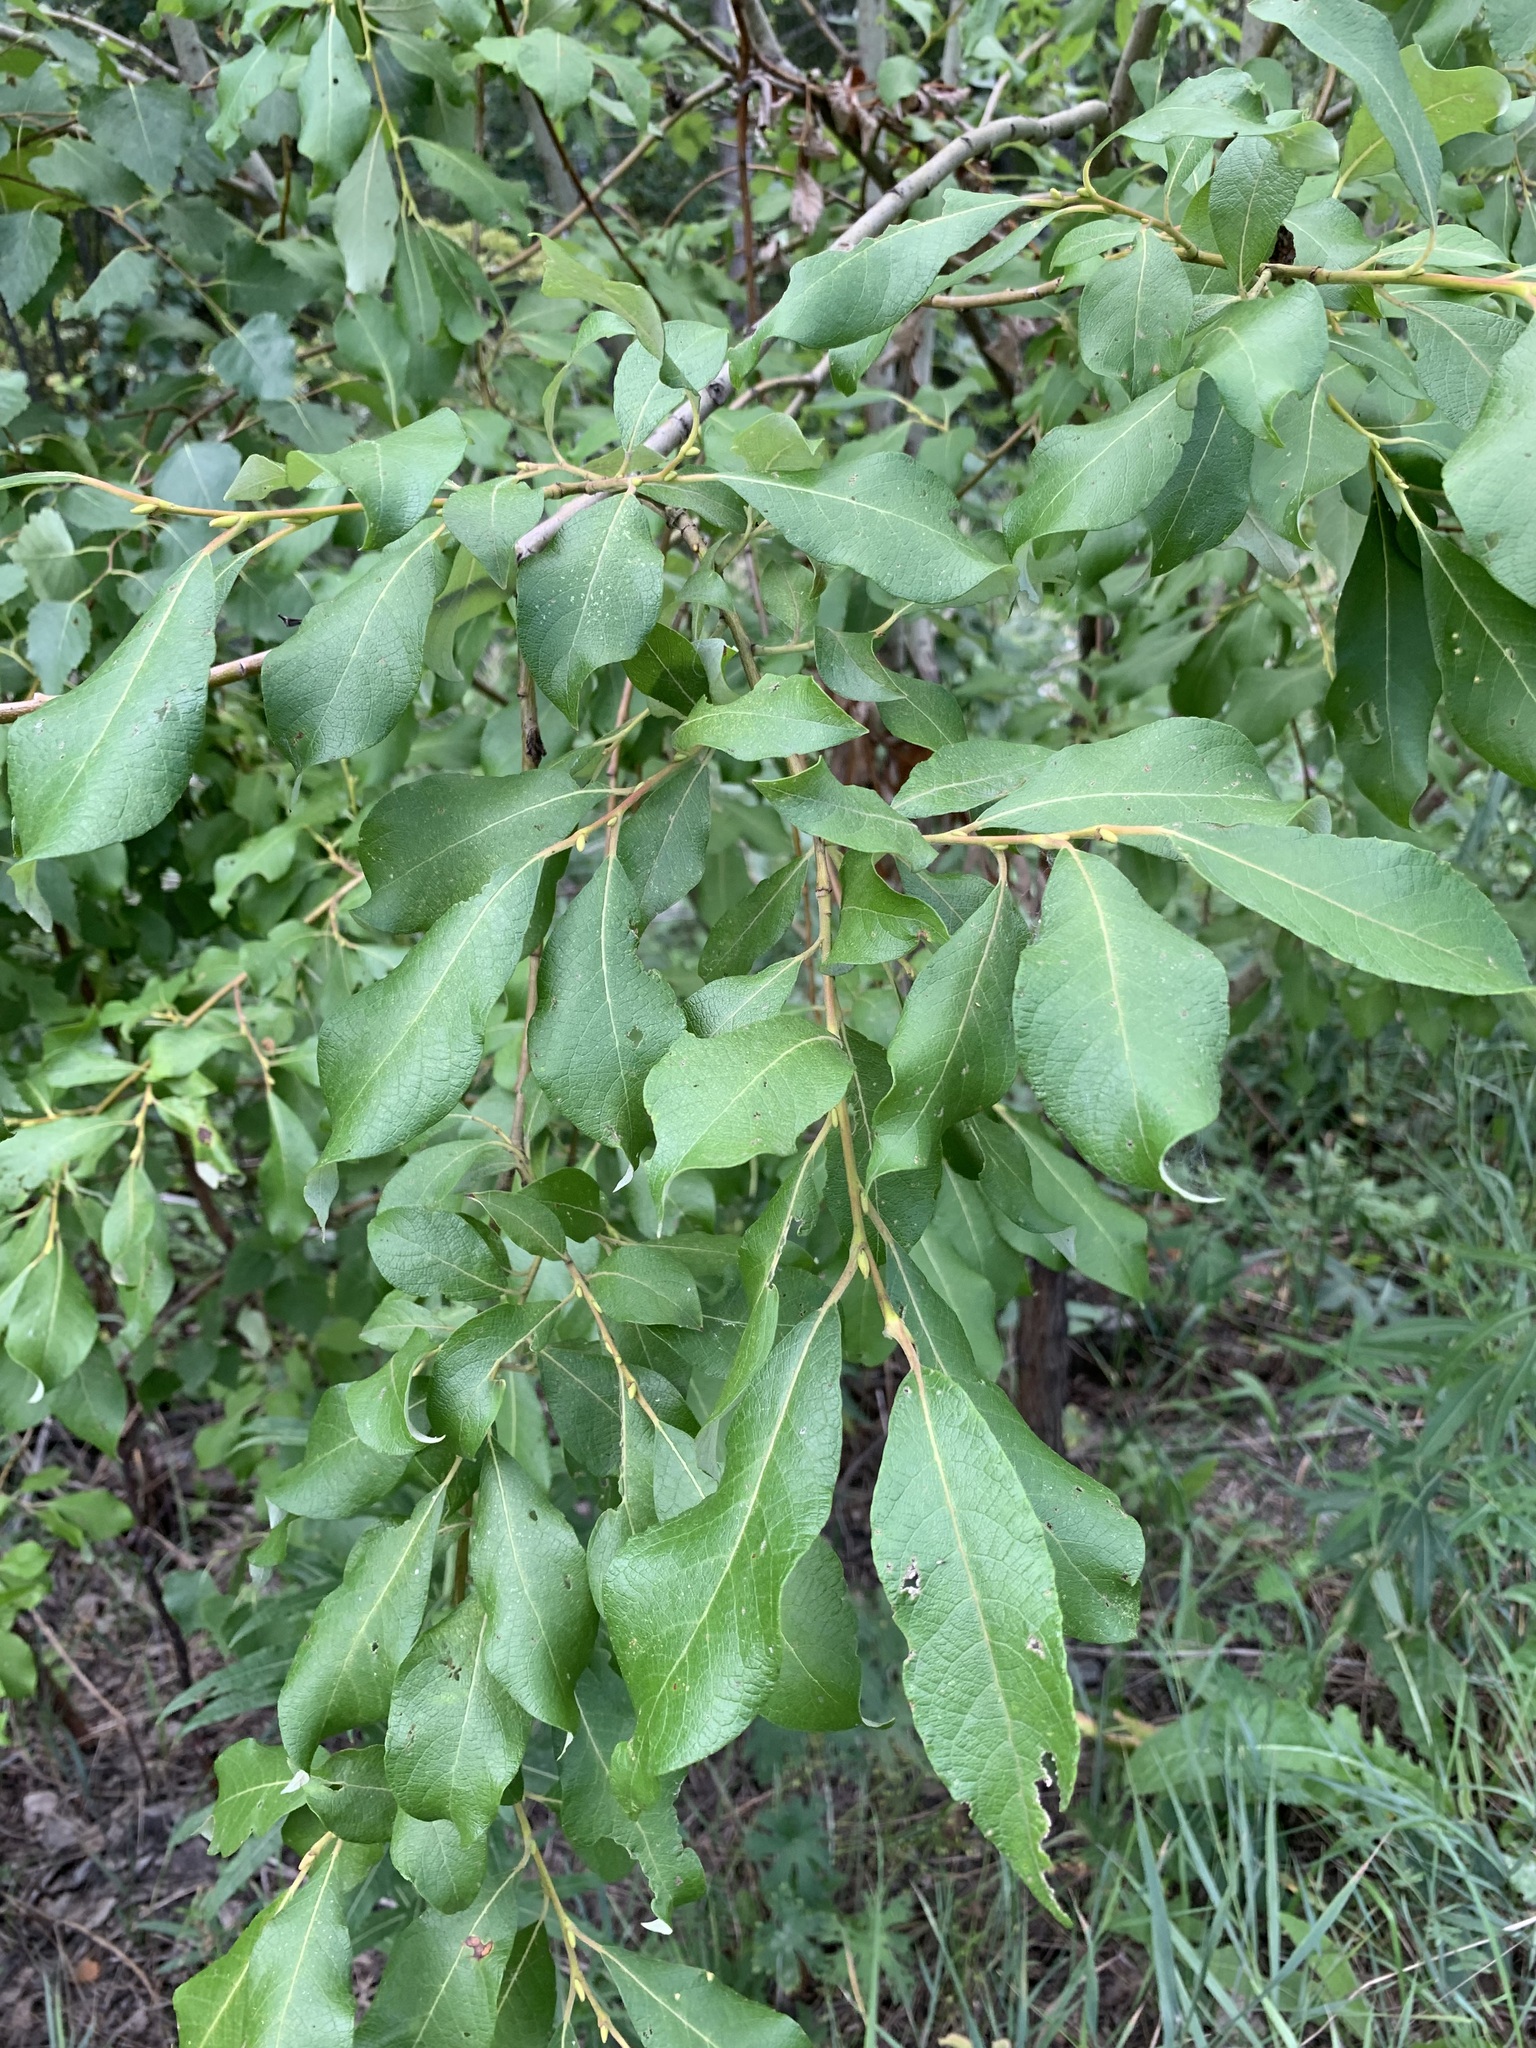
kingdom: Plantae
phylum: Tracheophyta
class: Magnoliopsida
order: Malpighiales
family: Salicaceae
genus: Salix
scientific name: Salix caprea
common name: Goat willow
